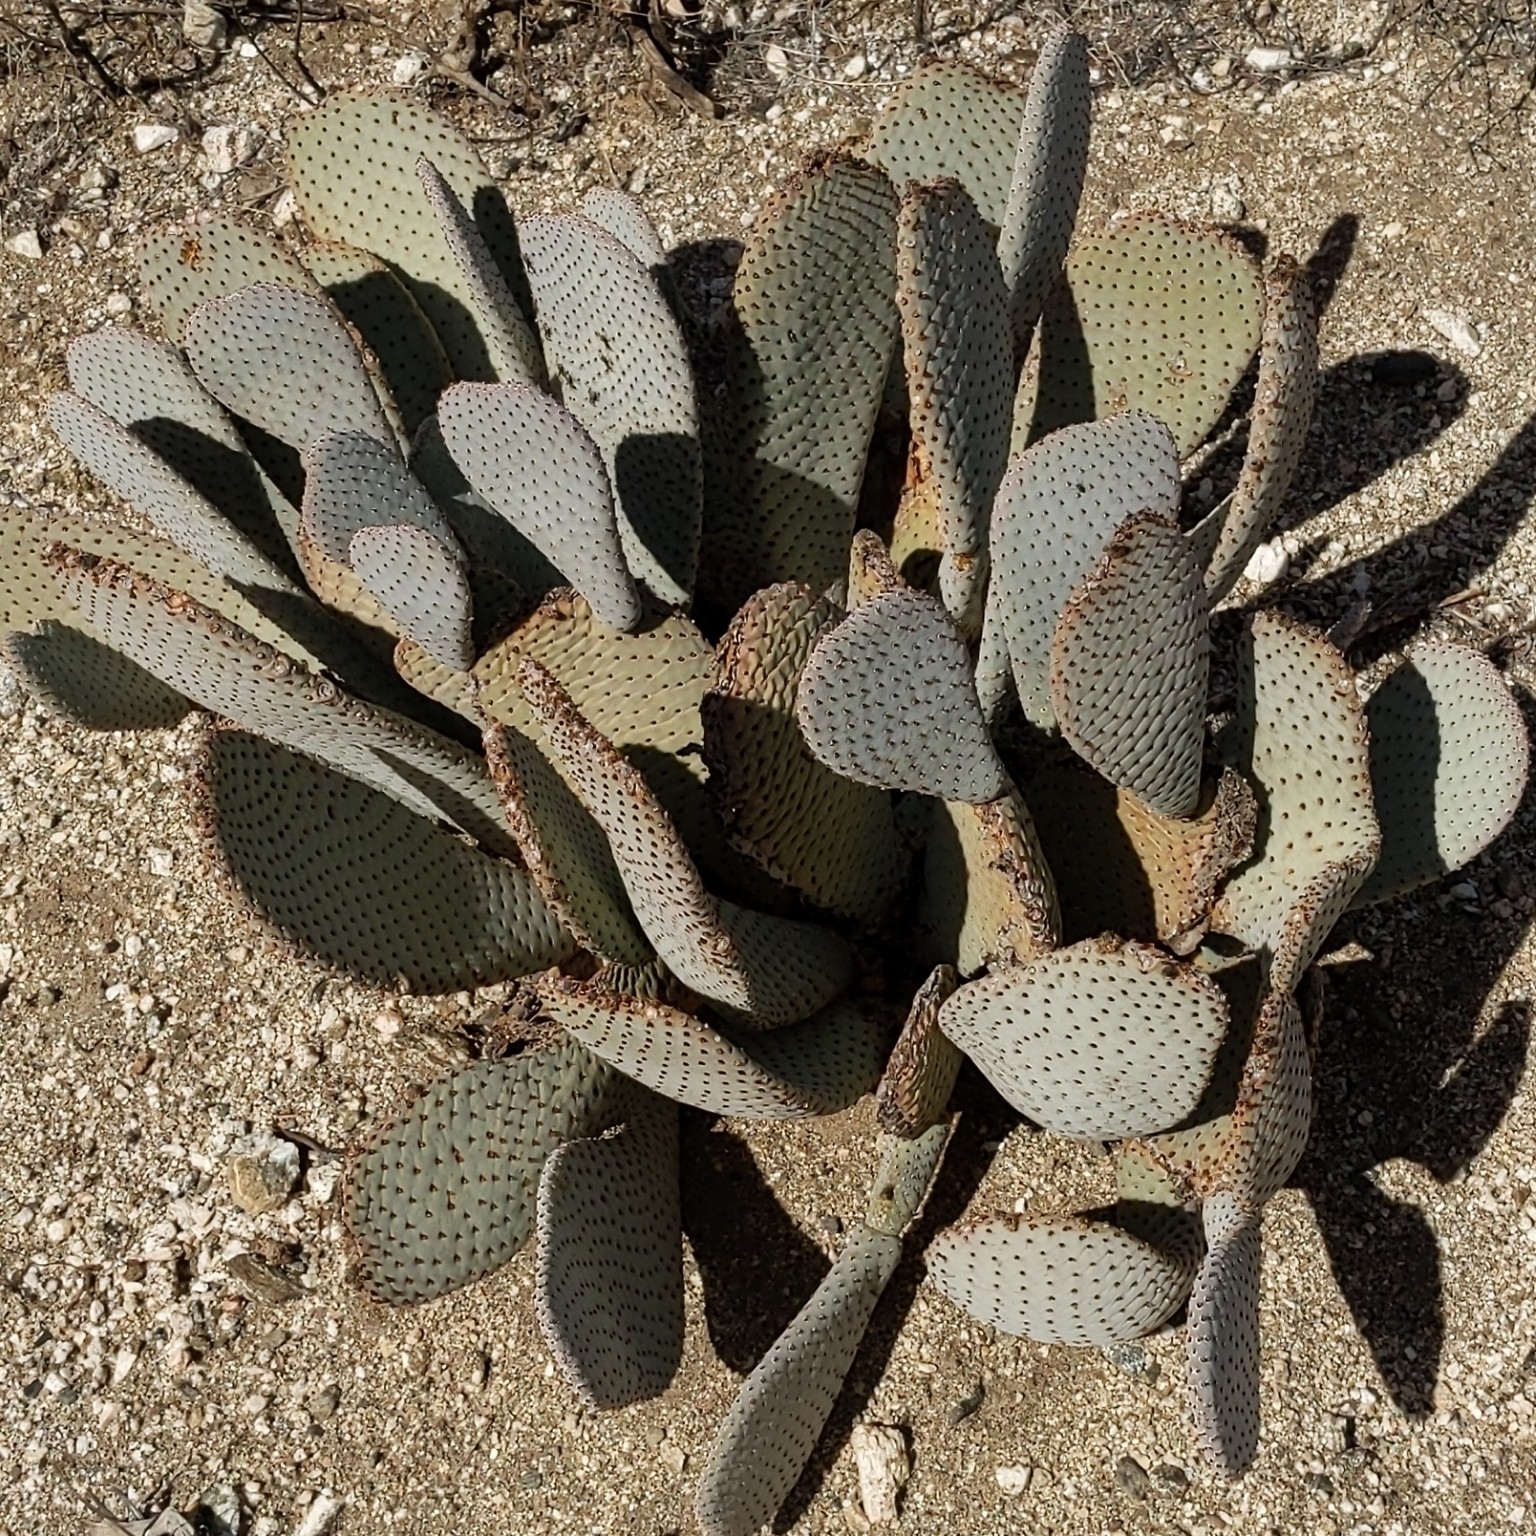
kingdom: Plantae
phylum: Tracheophyta
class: Magnoliopsida
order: Caryophyllales
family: Cactaceae
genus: Opuntia
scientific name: Opuntia basilaris
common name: Beavertail prickly-pear
